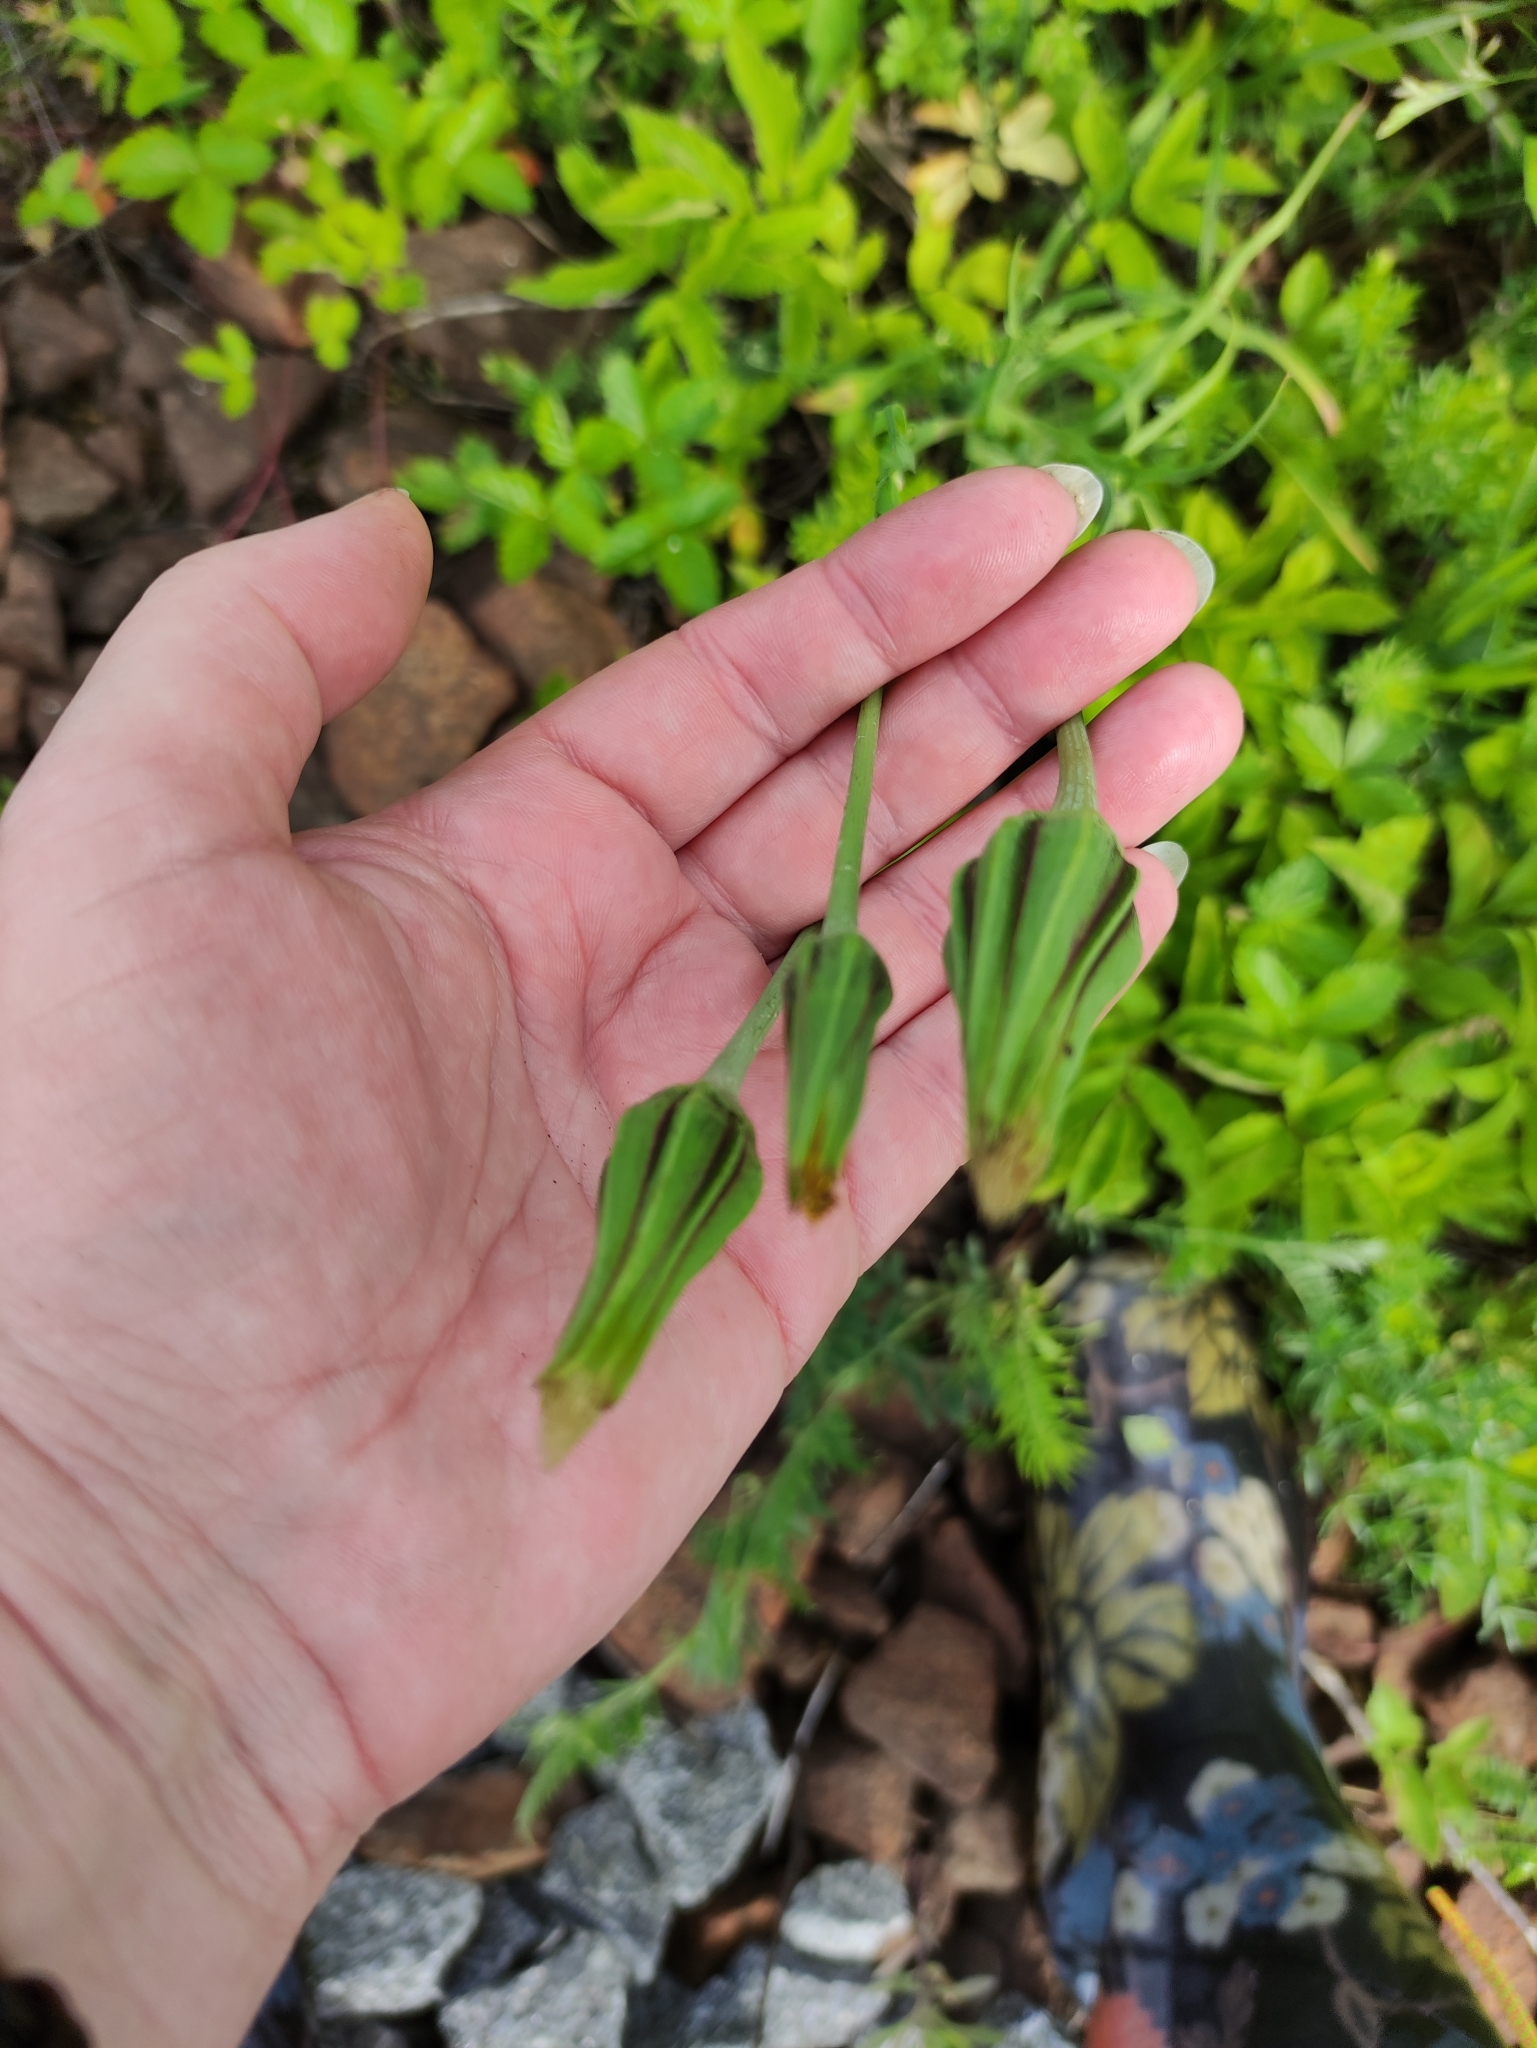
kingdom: Plantae
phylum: Tracheophyta
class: Magnoliopsida
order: Asterales
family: Asteraceae
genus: Tragopogon
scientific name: Tragopogon pratensis
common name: Goat's-beard
